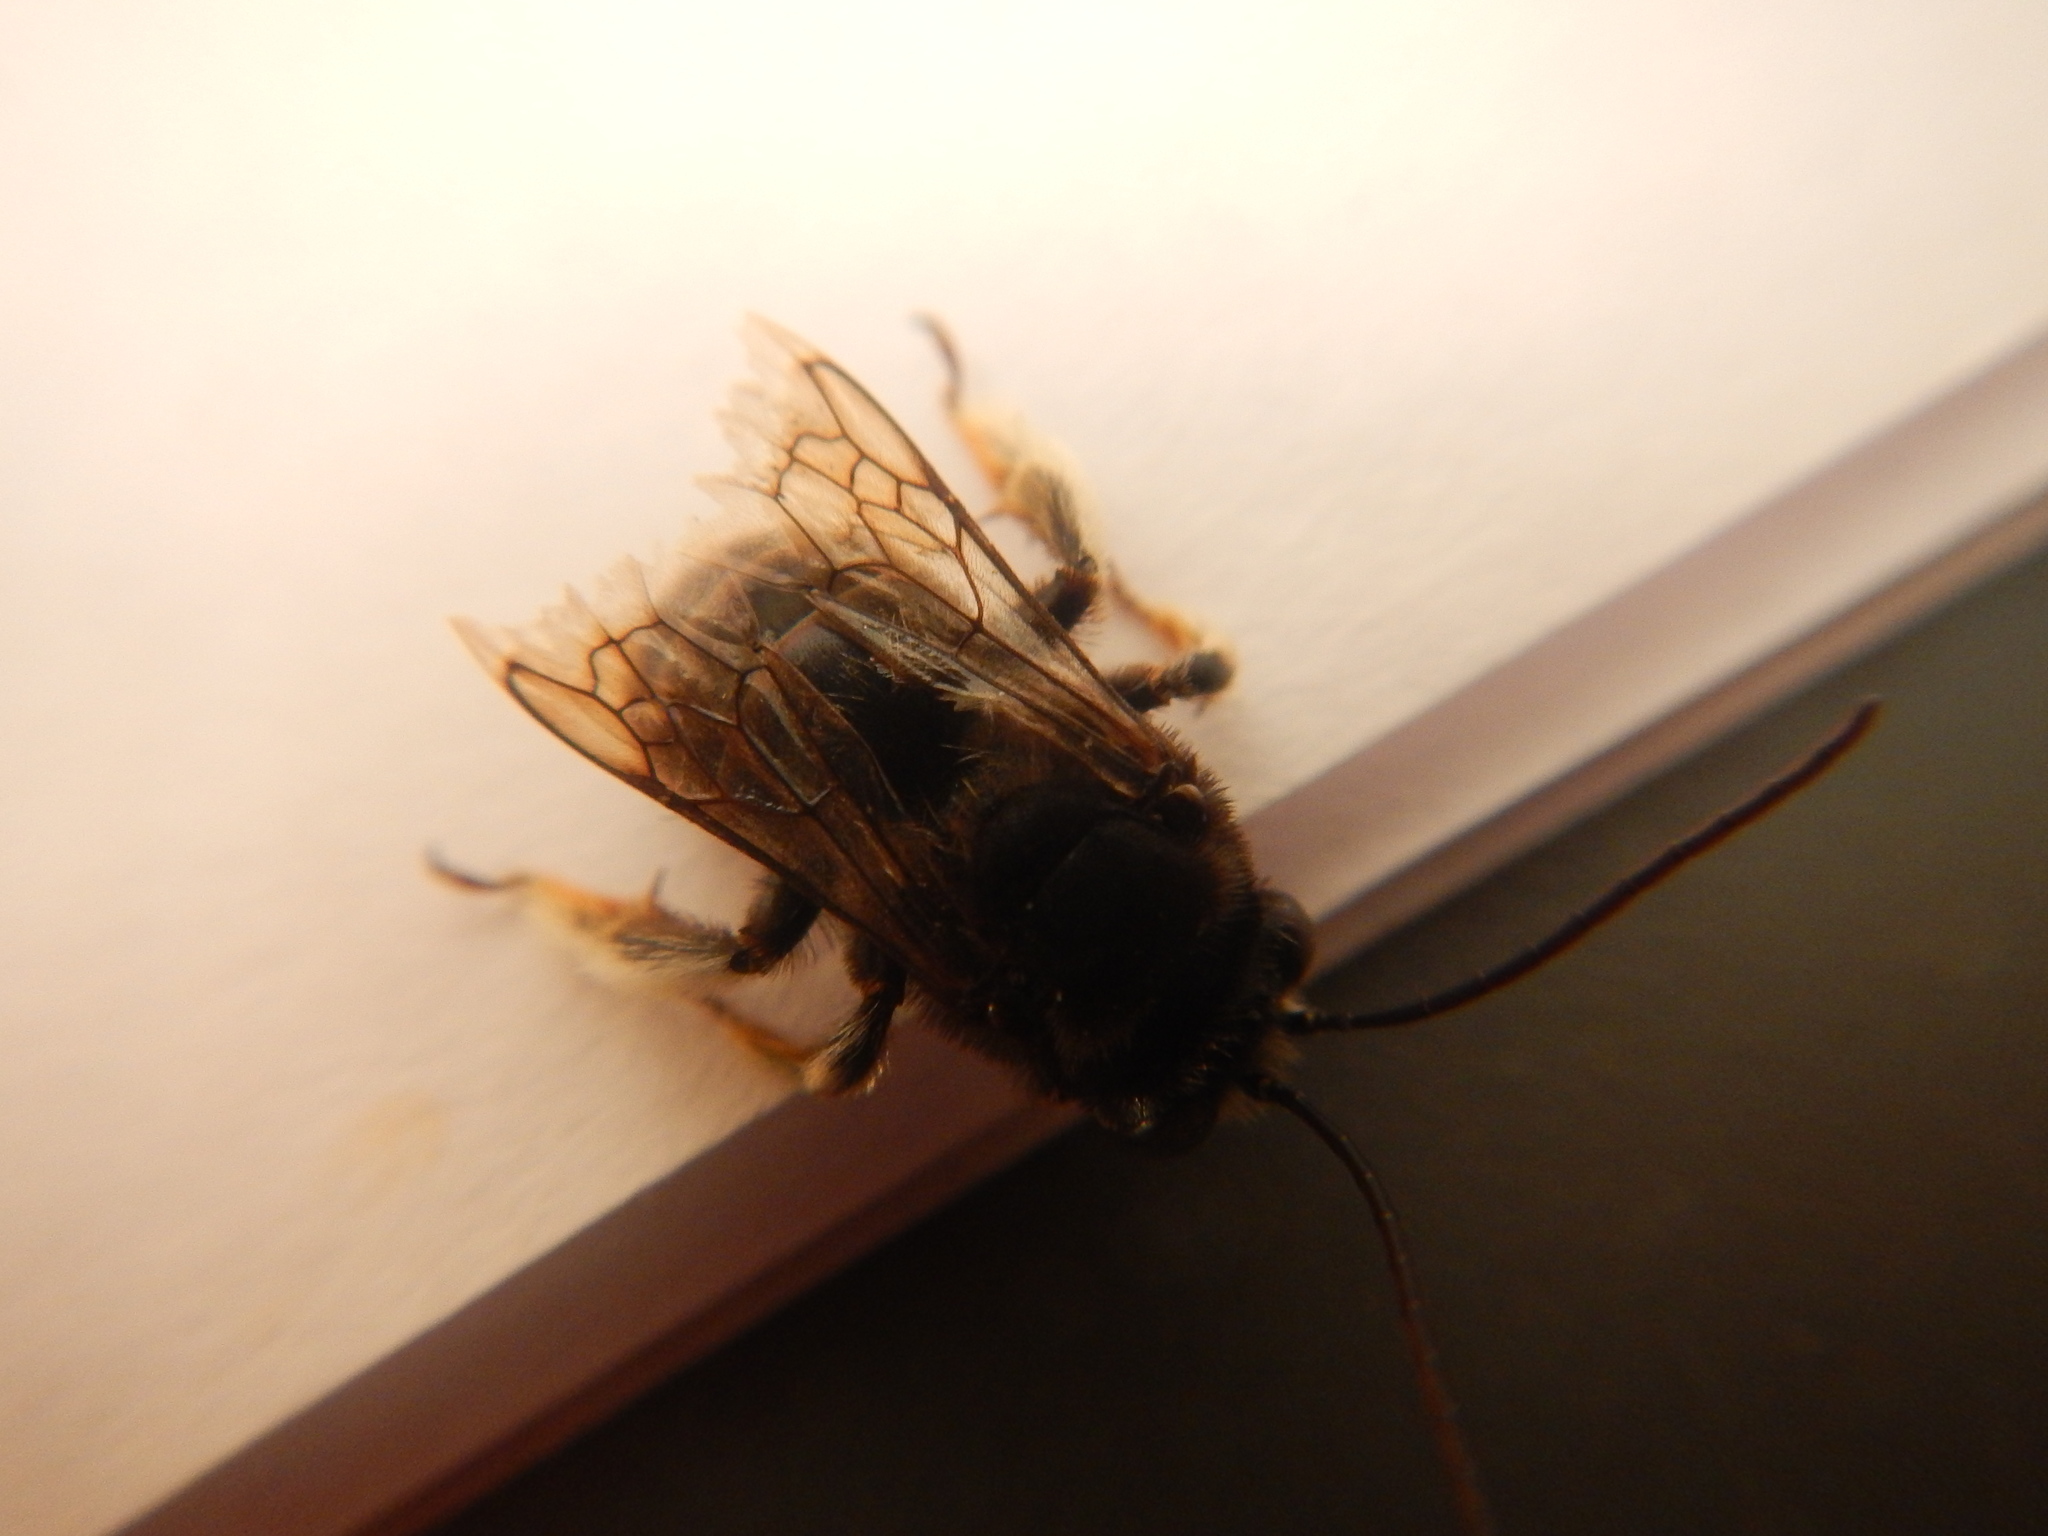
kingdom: Animalia
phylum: Arthropoda
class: Insecta
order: Hymenoptera
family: Apidae
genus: Melissodes
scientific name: Melissodes bimaculatus
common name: Two-spotted long-horned bee
